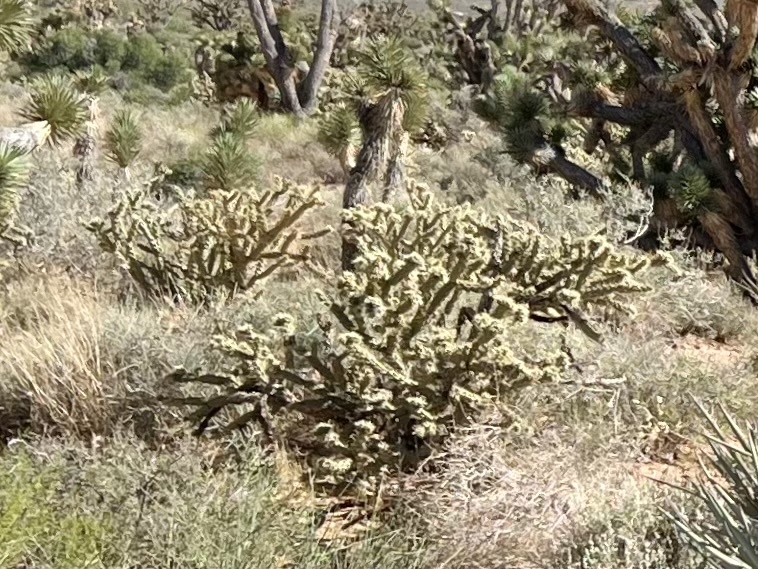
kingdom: Plantae
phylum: Tracheophyta
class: Magnoliopsida
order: Caryophyllales
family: Cactaceae
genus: Cylindropuntia
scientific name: Cylindropuntia acanthocarpa
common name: Buckhorn cholla
